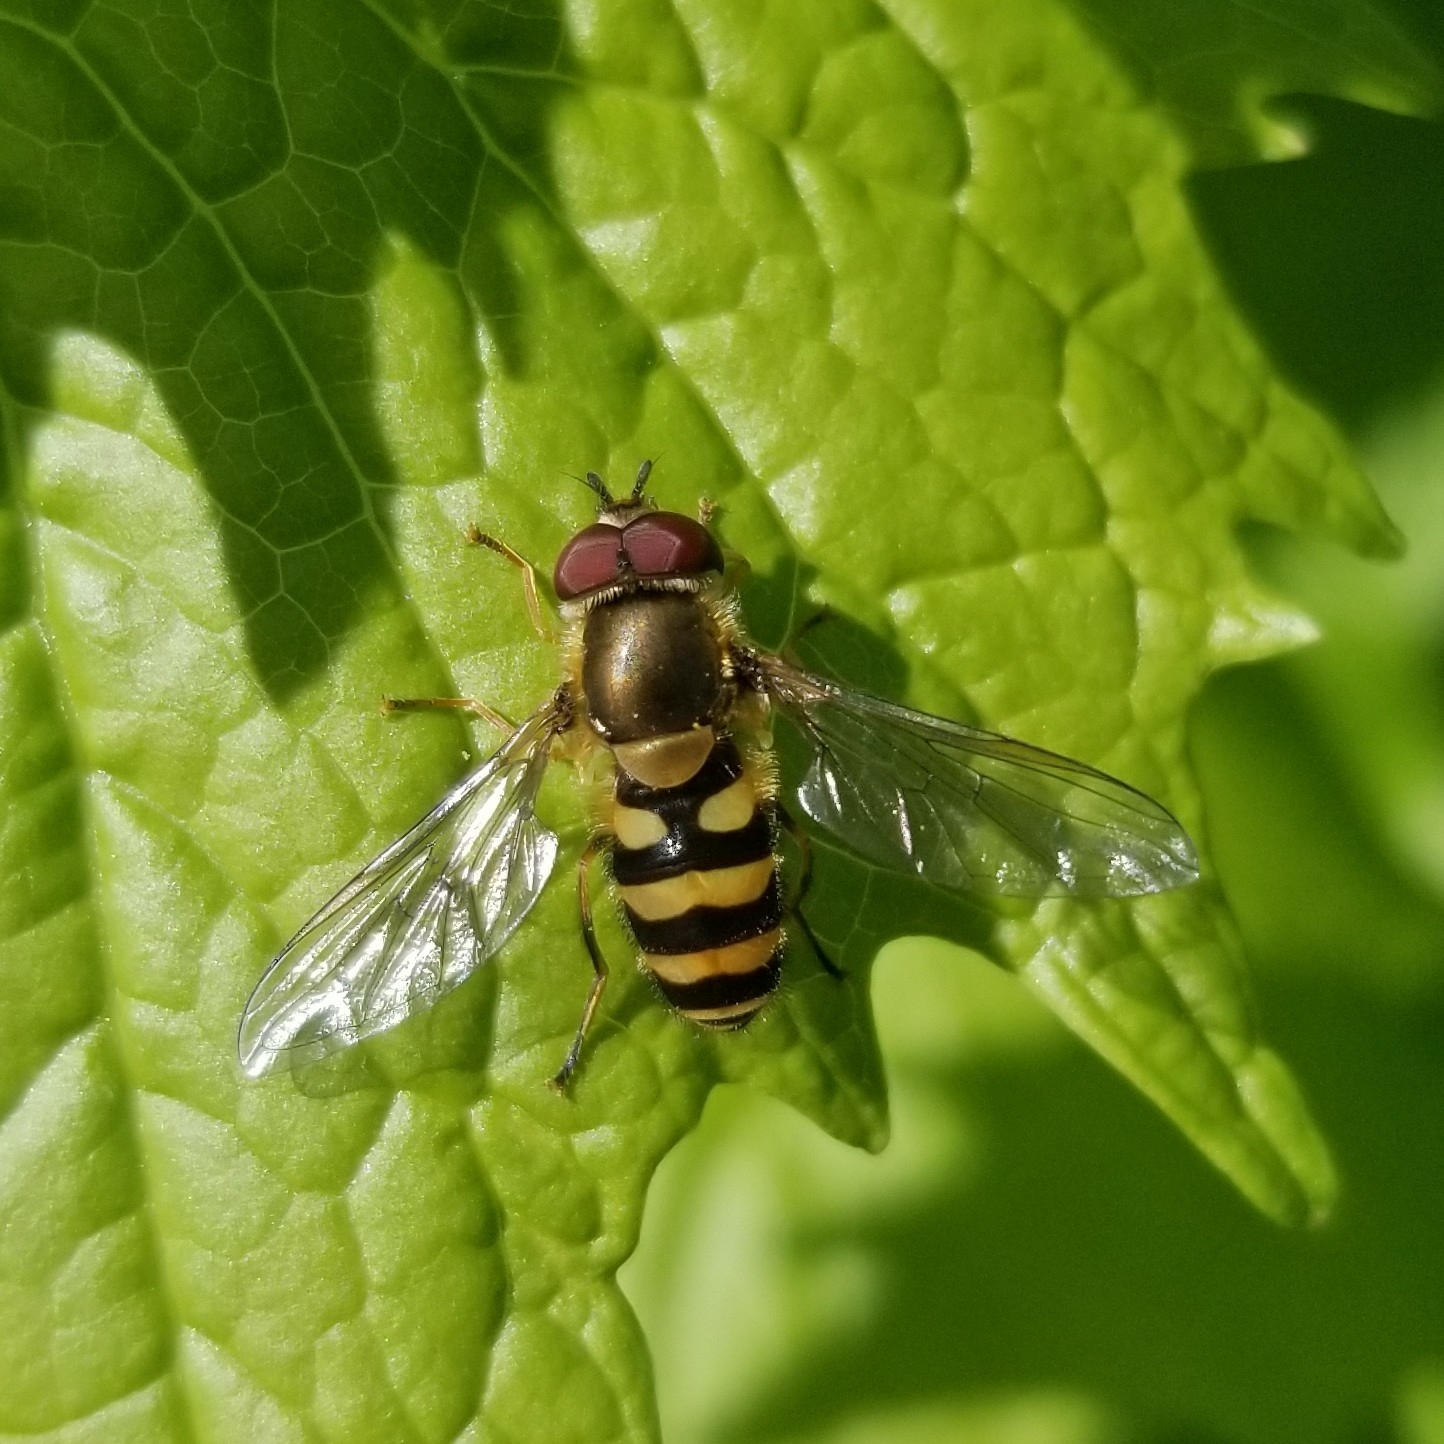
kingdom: Animalia
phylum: Arthropoda
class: Insecta
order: Diptera
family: Syrphidae
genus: Syrphus
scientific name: Syrphus
